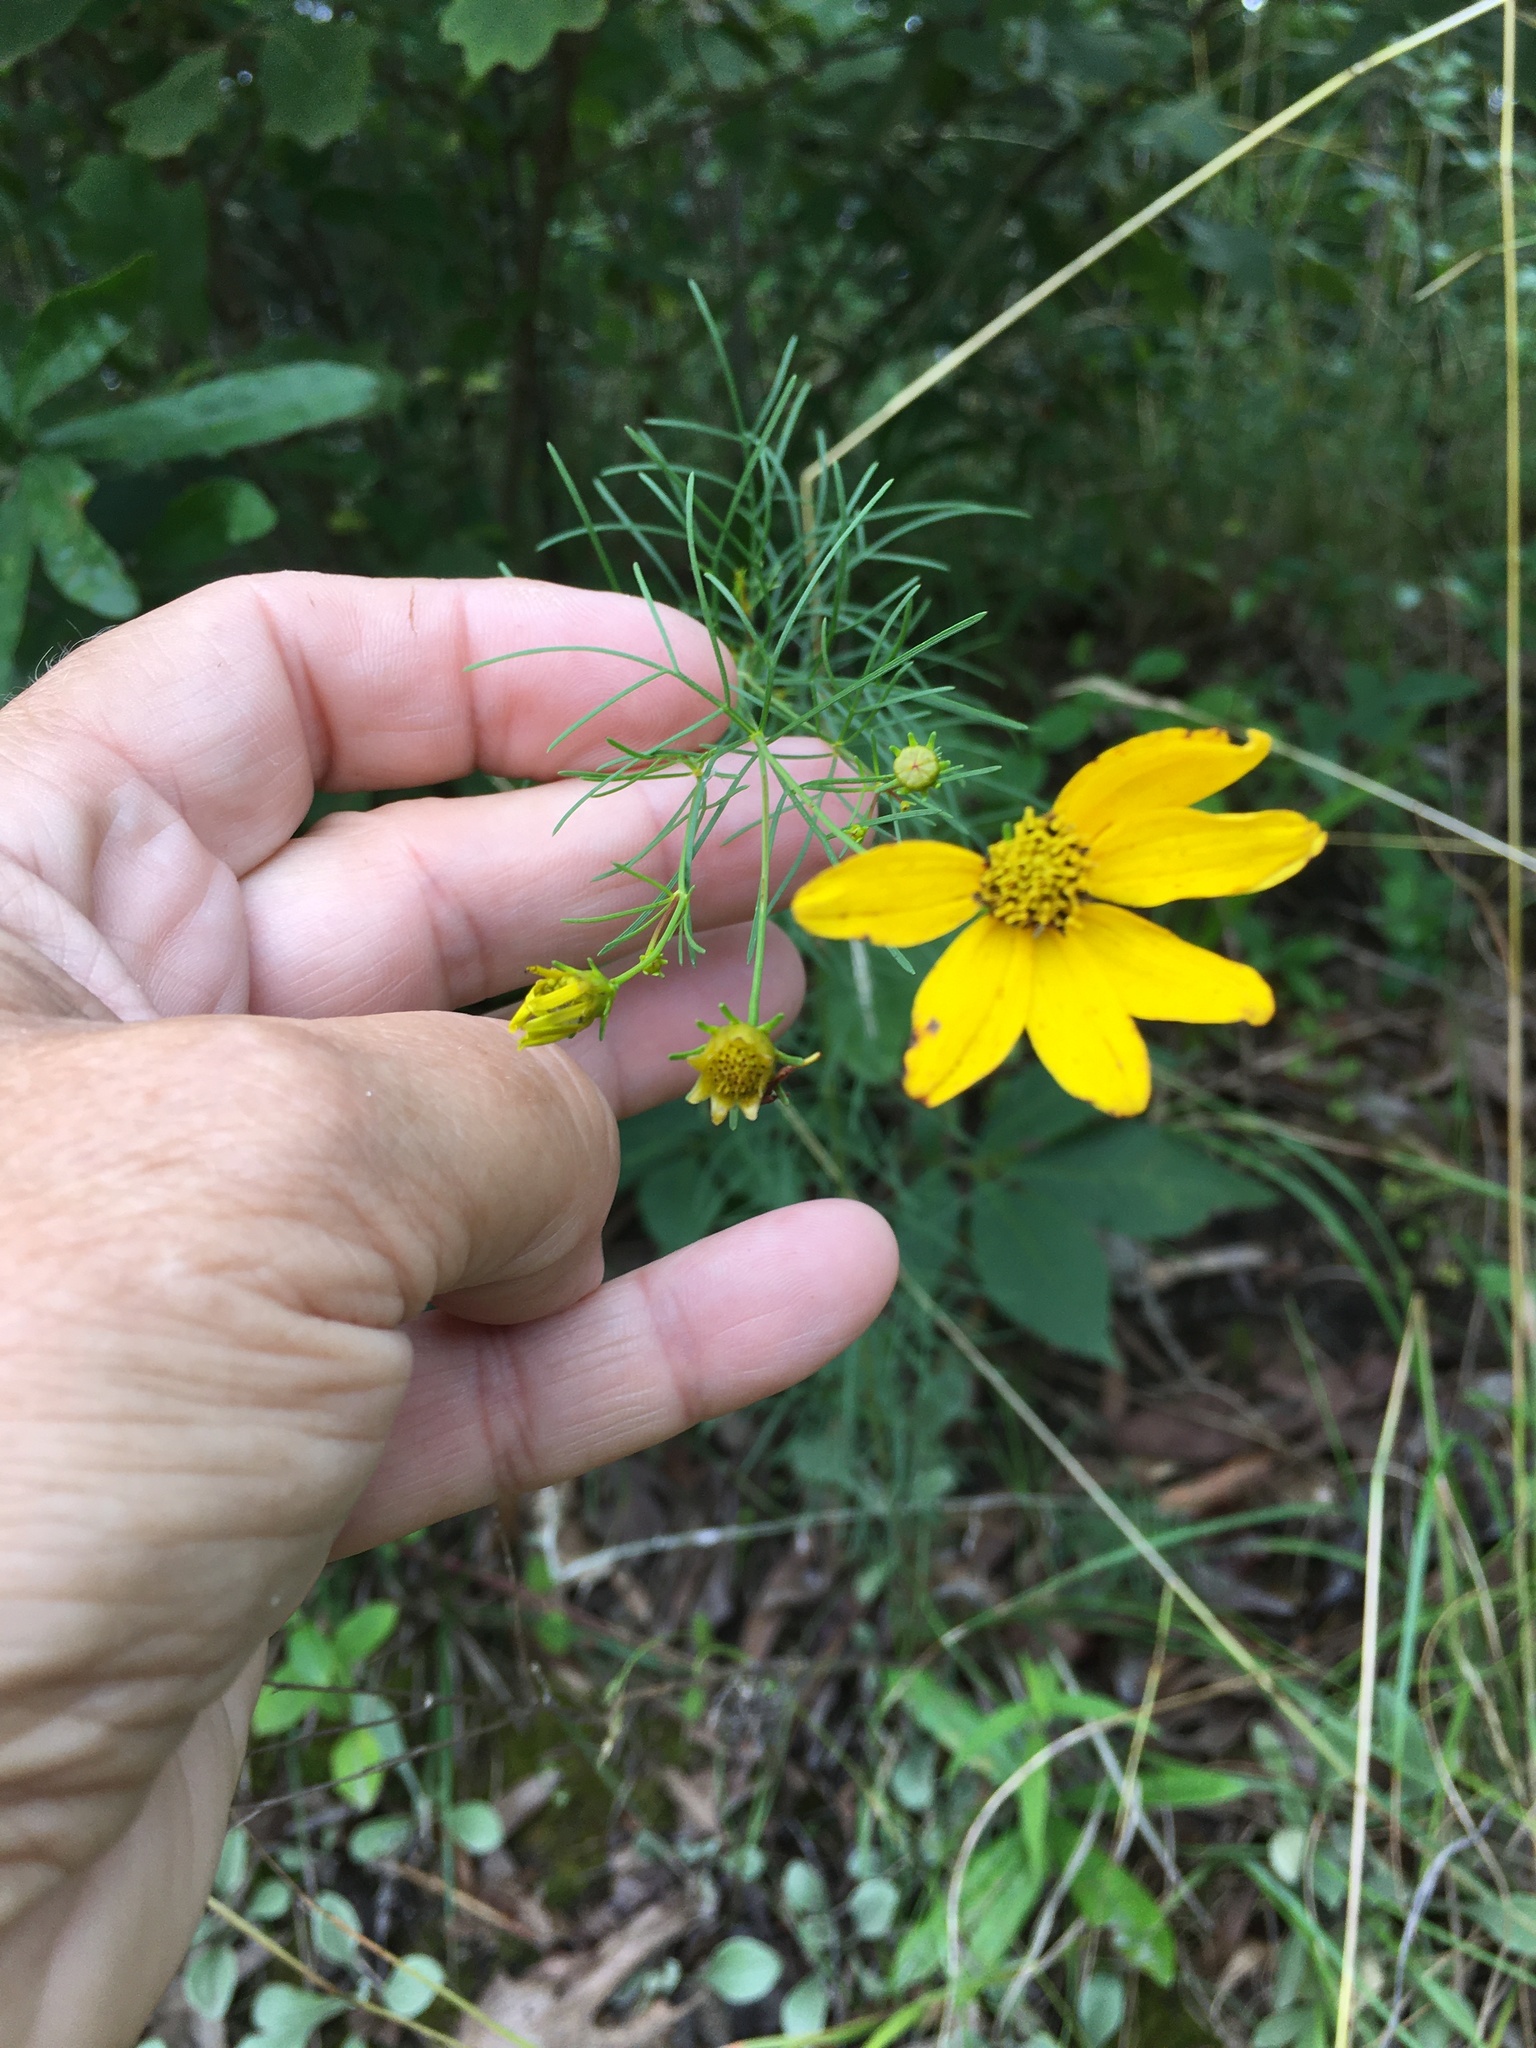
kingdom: Plantae
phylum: Tracheophyta
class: Magnoliopsida
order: Asterales
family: Asteraceae
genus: Coreopsis
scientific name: Coreopsis verticillata
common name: Whorled tickseed
